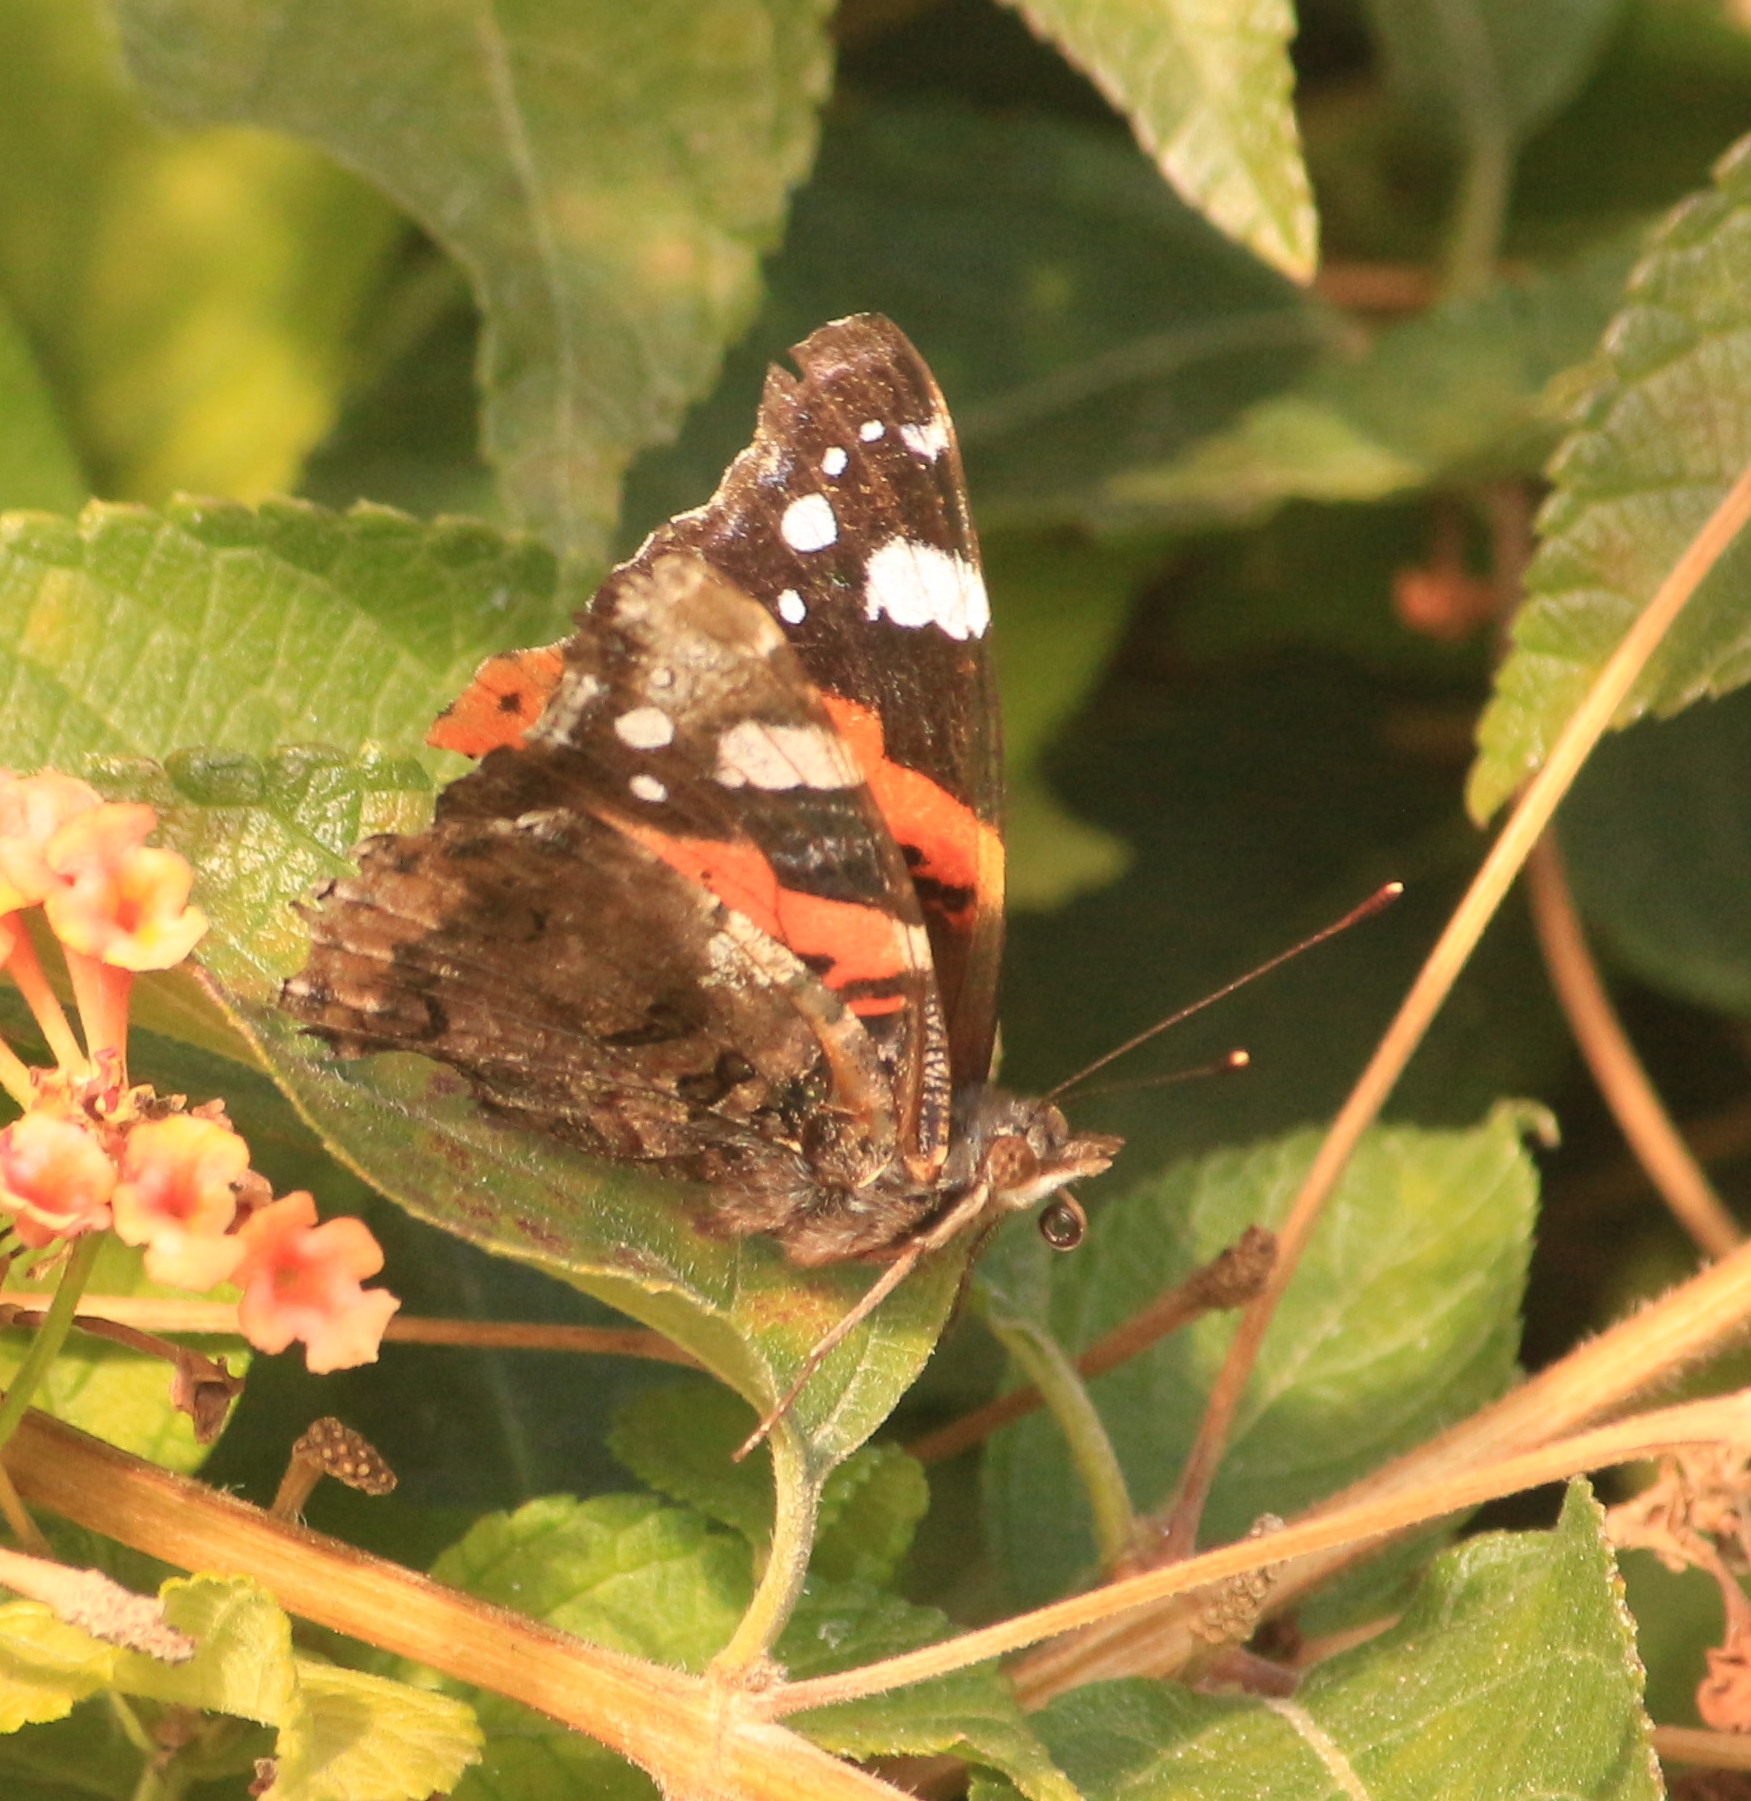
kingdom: Animalia
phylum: Arthropoda
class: Insecta
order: Lepidoptera
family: Nymphalidae
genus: Vanessa
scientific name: Vanessa atalanta
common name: Red admiral
